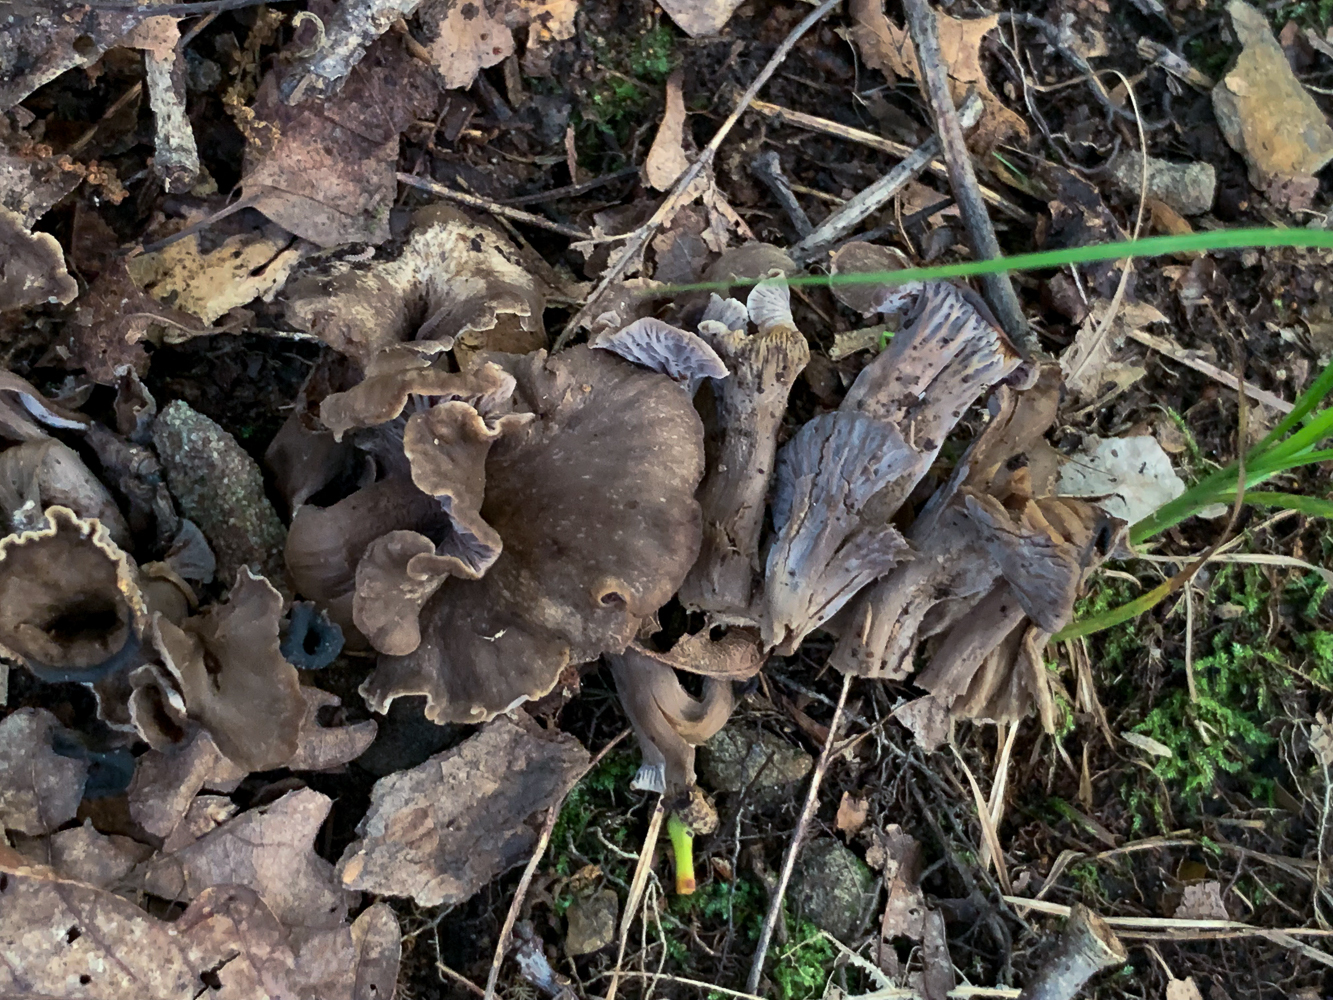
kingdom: Fungi
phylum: Basidiomycota
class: Agaricomycetes
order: Cantharellales
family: Hydnaceae
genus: Craterellus
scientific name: Craterellus foetidus
